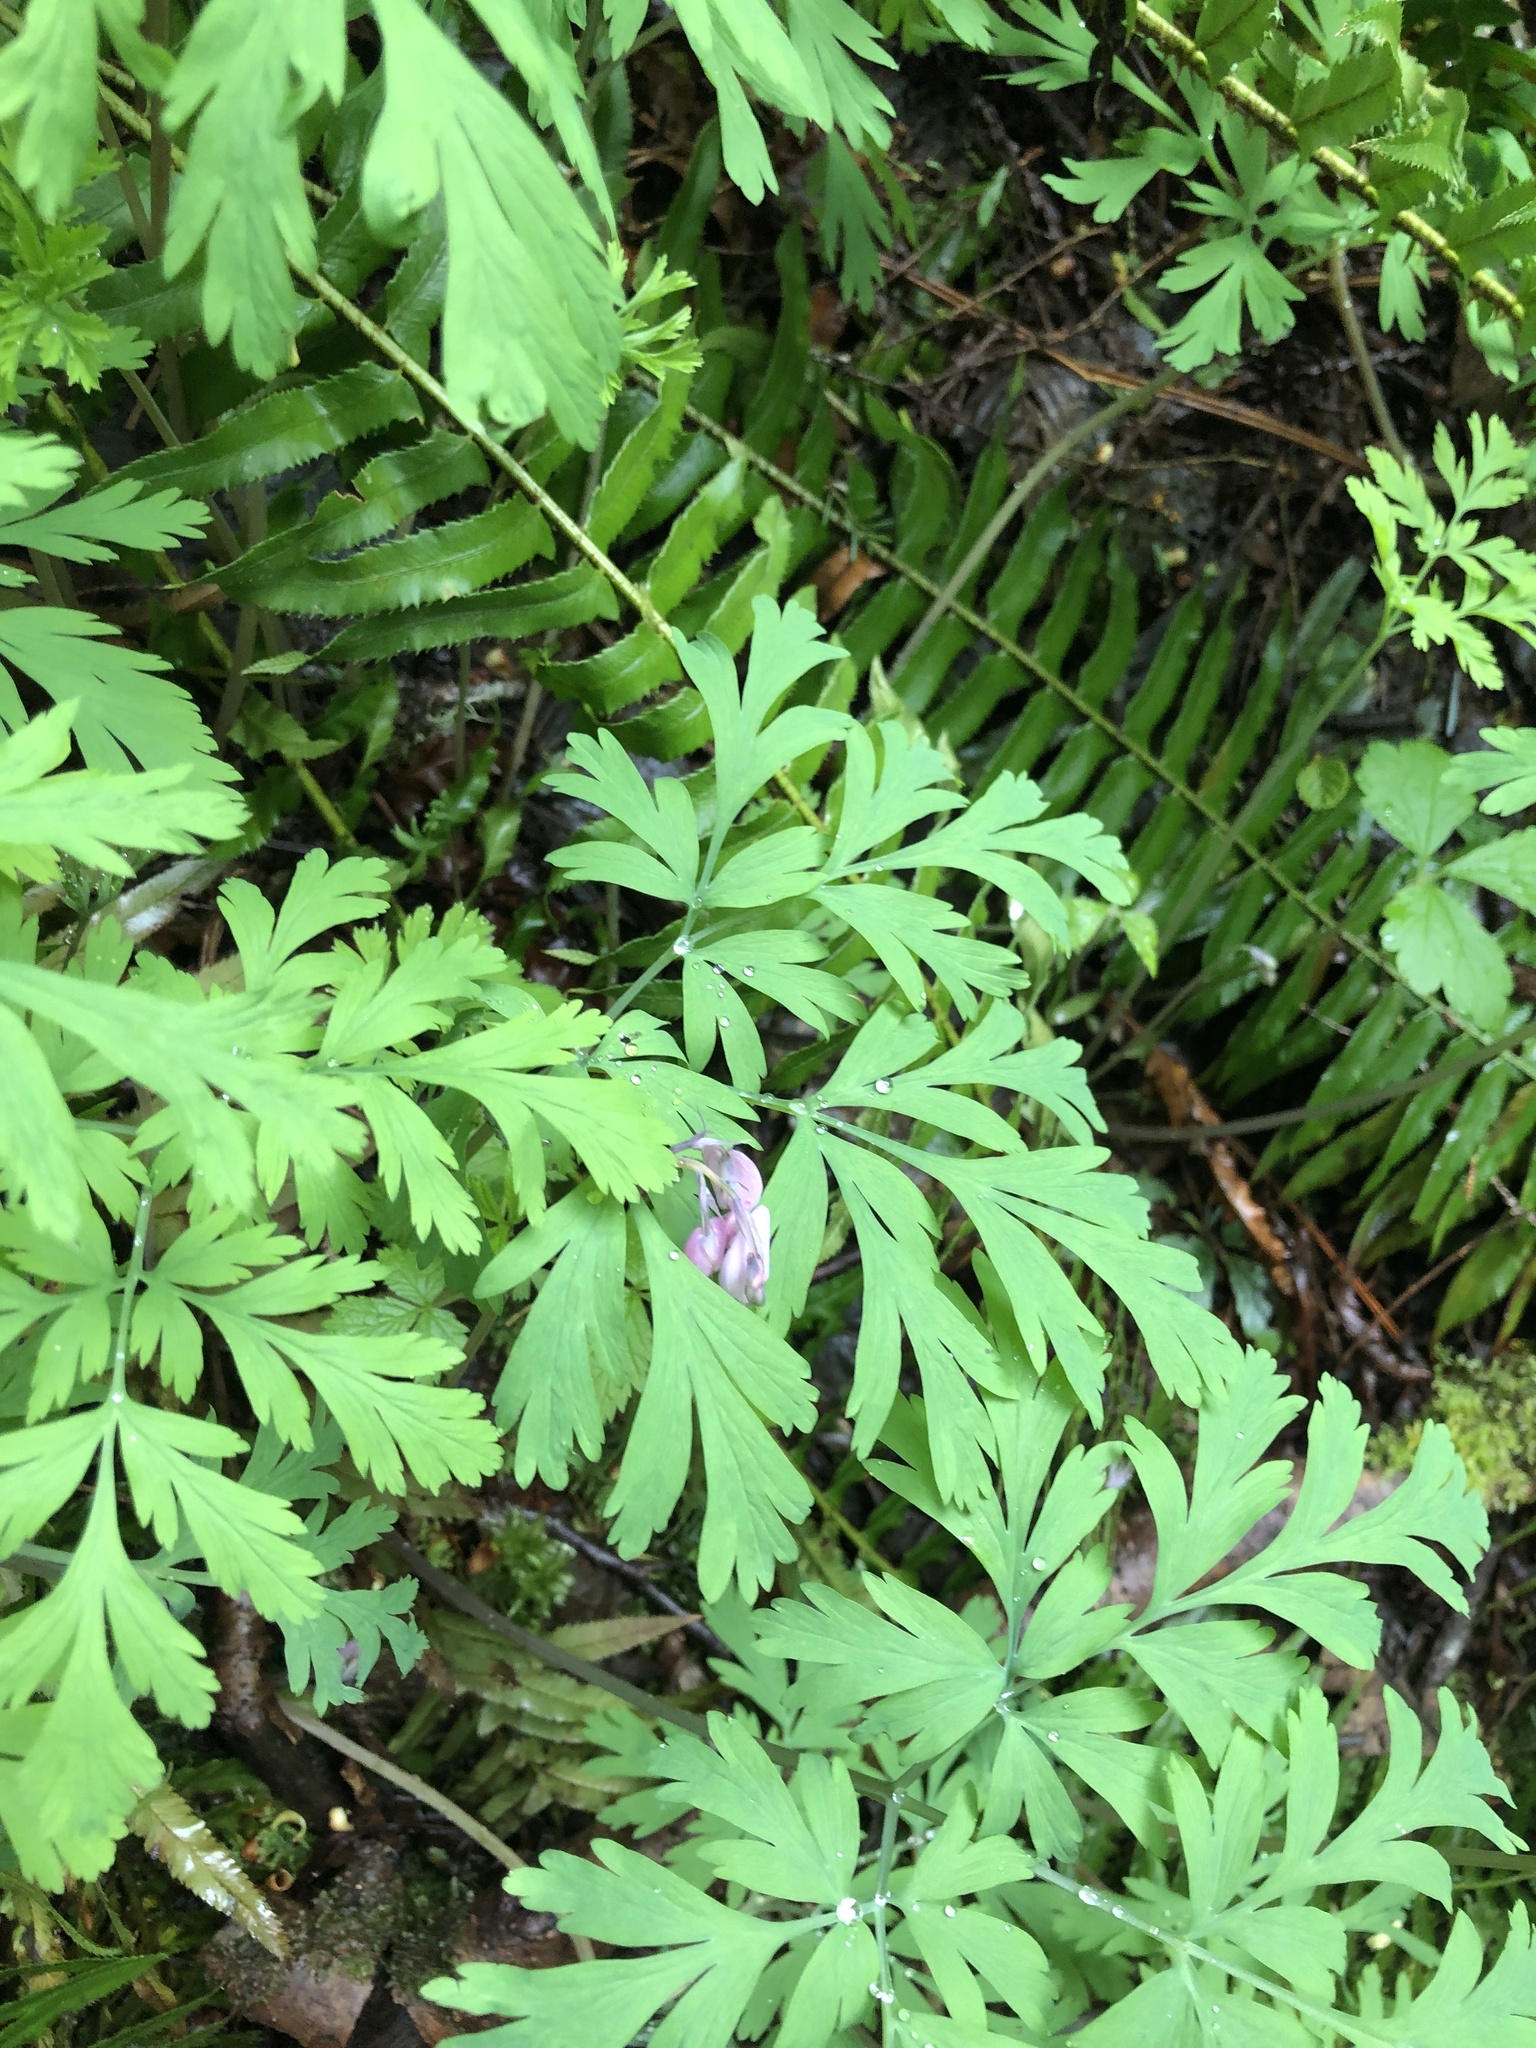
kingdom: Plantae
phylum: Tracheophyta
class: Magnoliopsida
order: Ranunculales
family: Papaveraceae
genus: Dicentra
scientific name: Dicentra formosa
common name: Bleeding-heart
